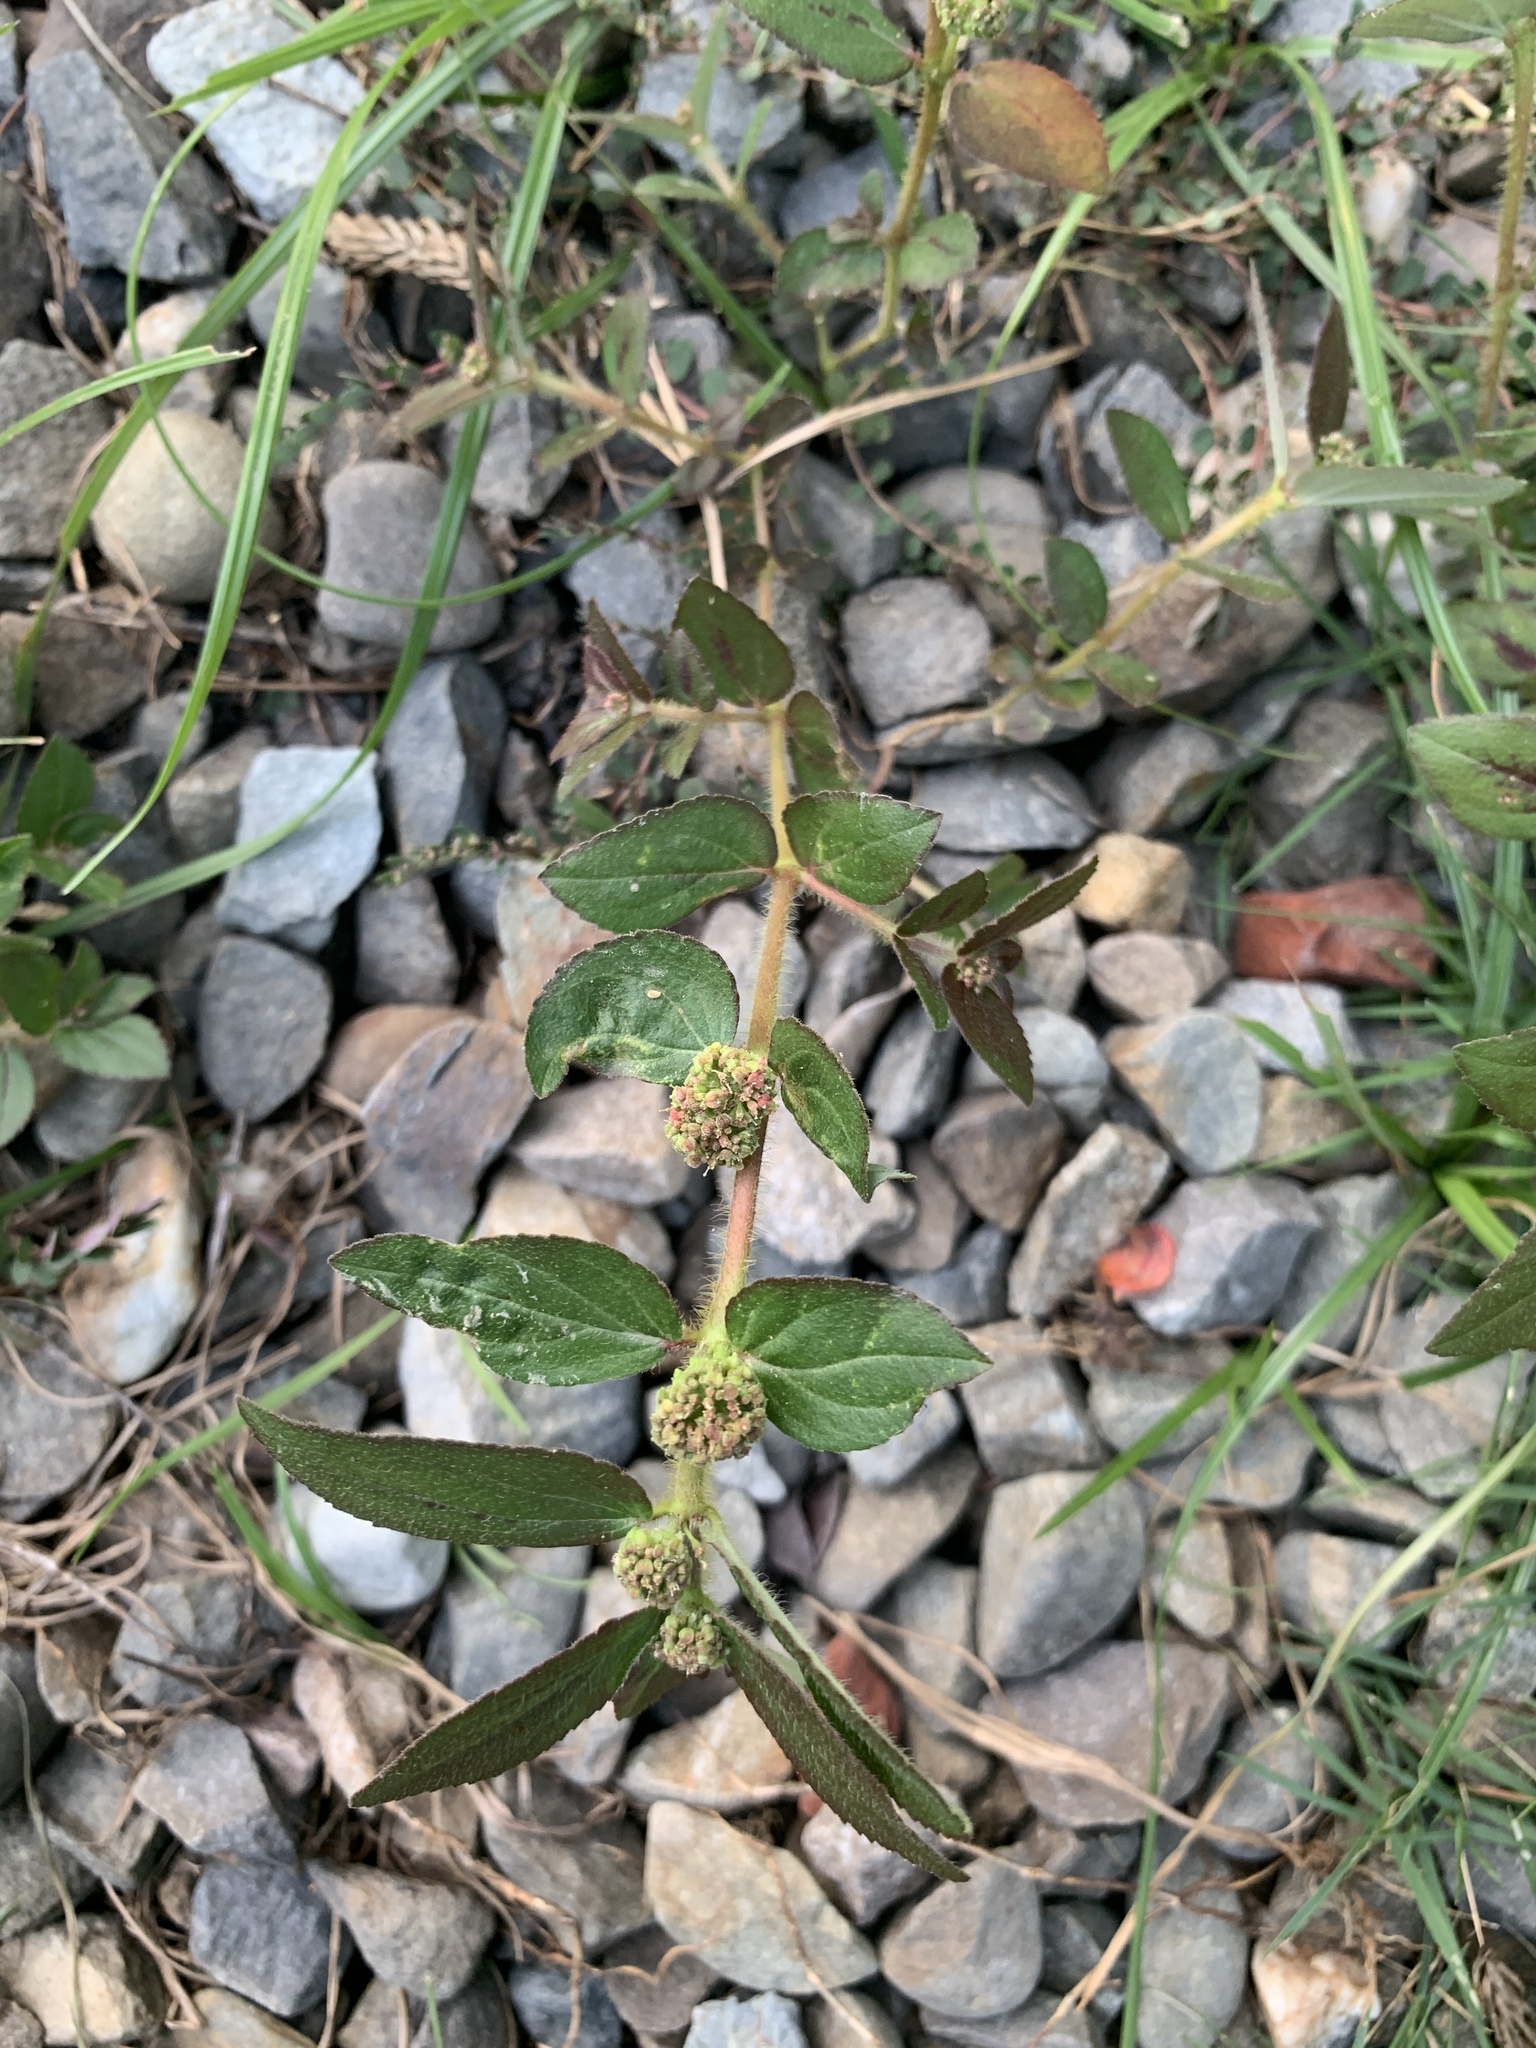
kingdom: Plantae
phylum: Tracheophyta
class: Magnoliopsida
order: Malpighiales
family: Euphorbiaceae
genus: Euphorbia
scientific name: Euphorbia hirta
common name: Pillpod sandmat
